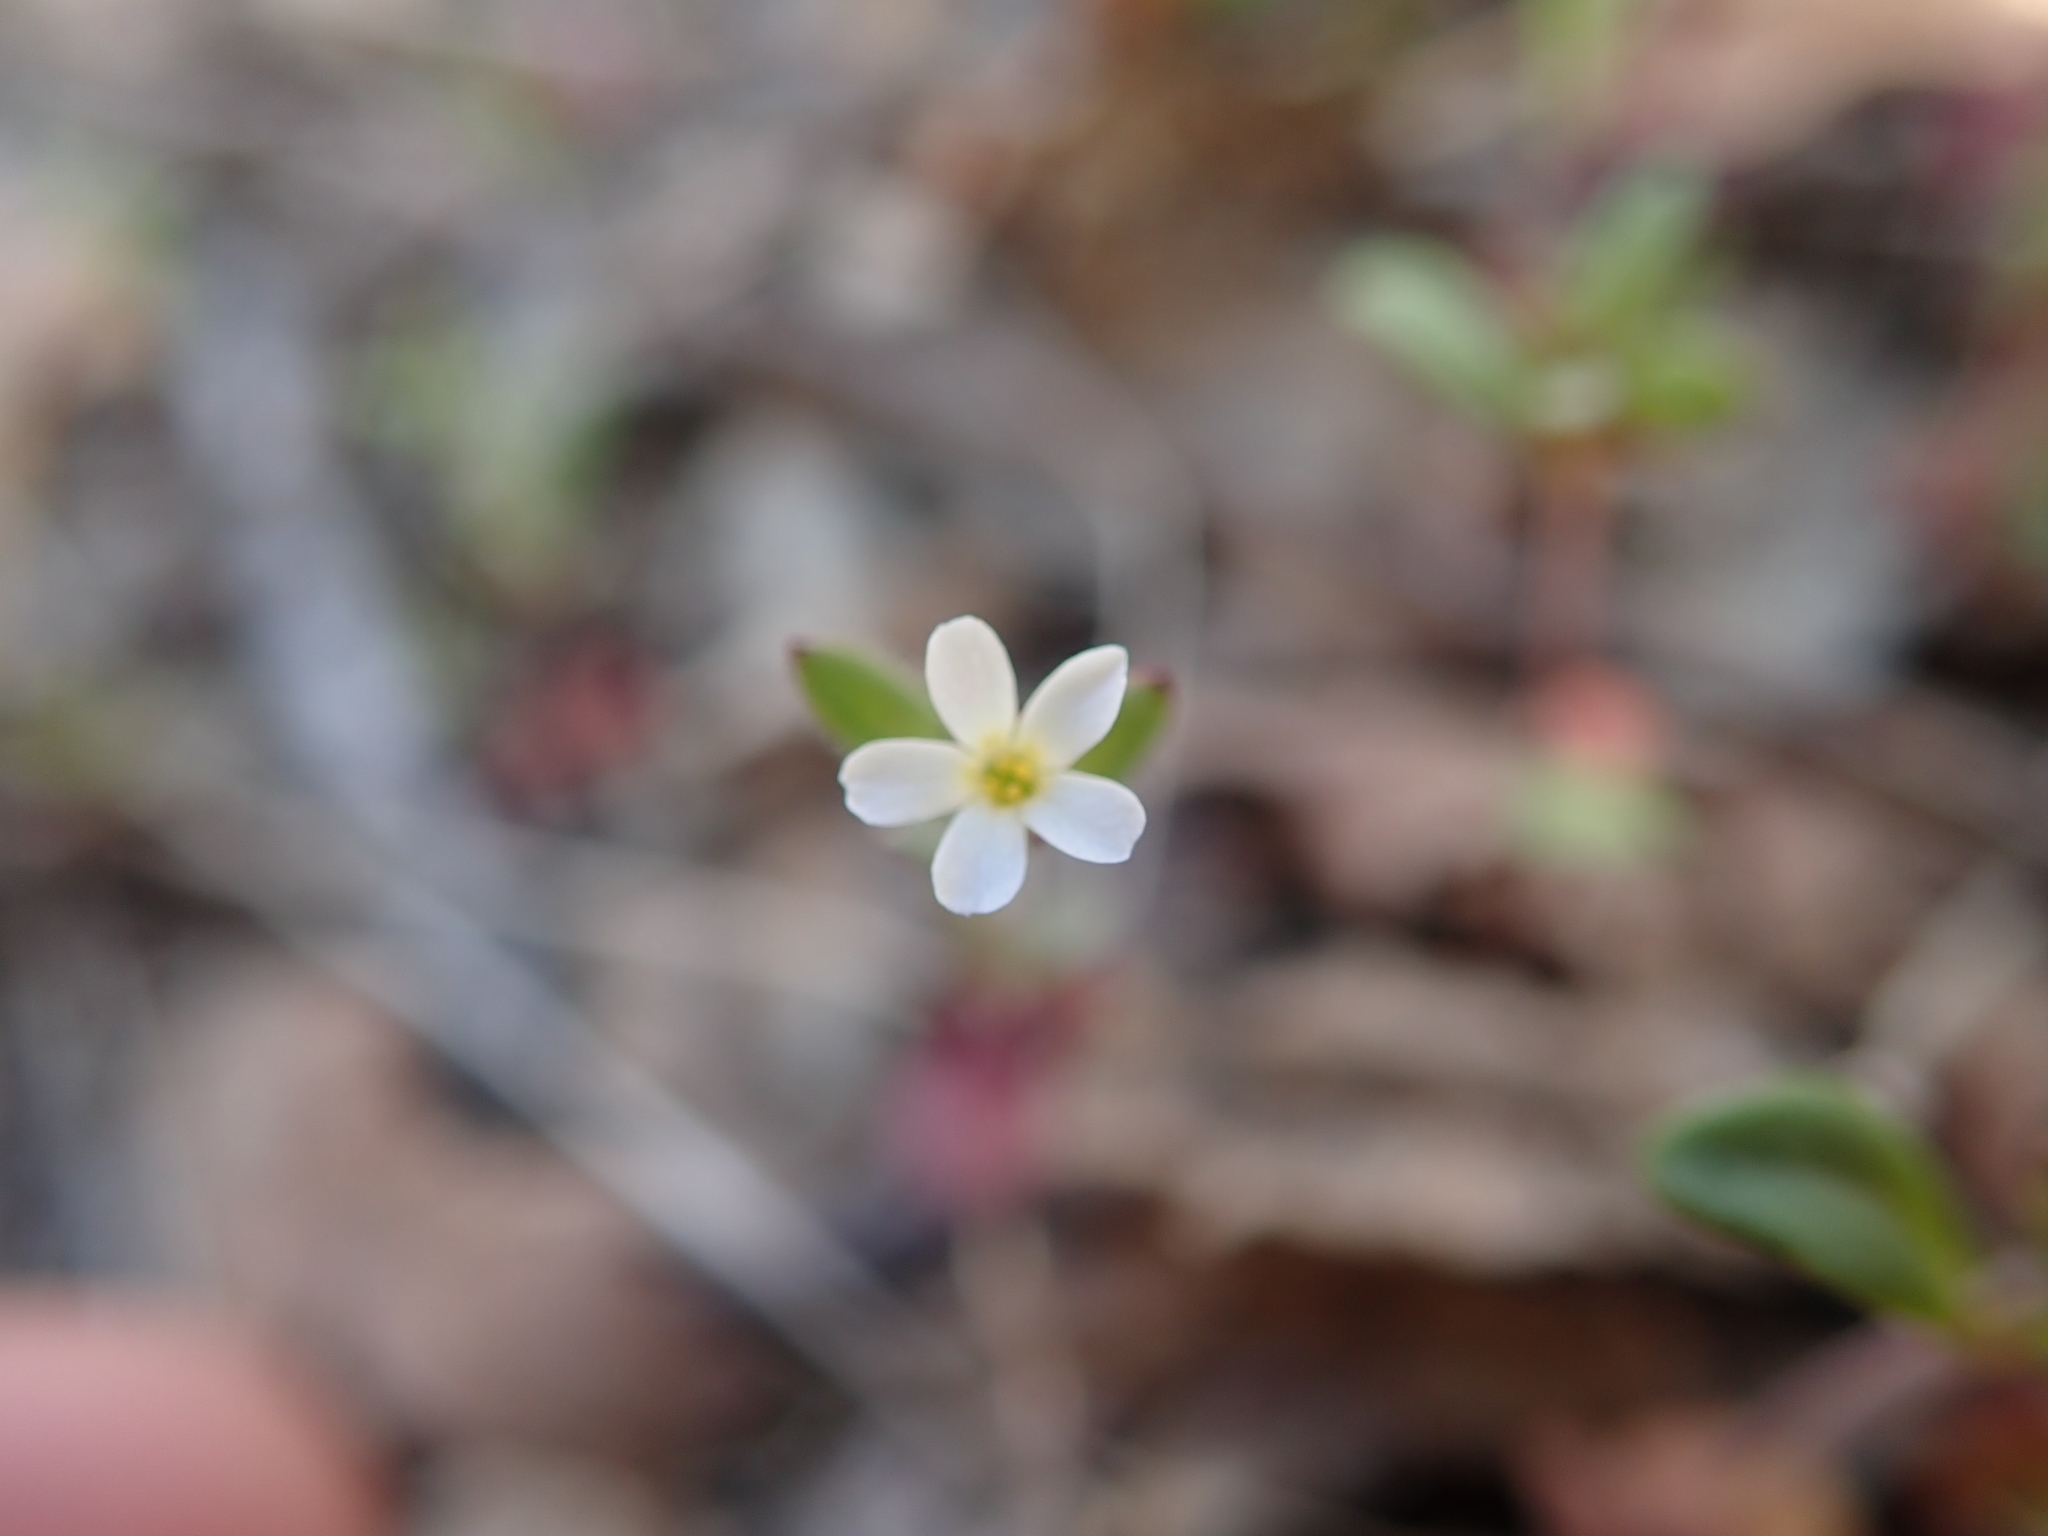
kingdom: Plantae
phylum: Tracheophyta
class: Magnoliopsida
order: Ericales
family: Polemoniaceae
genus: Phlox
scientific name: Phlox gracilis
